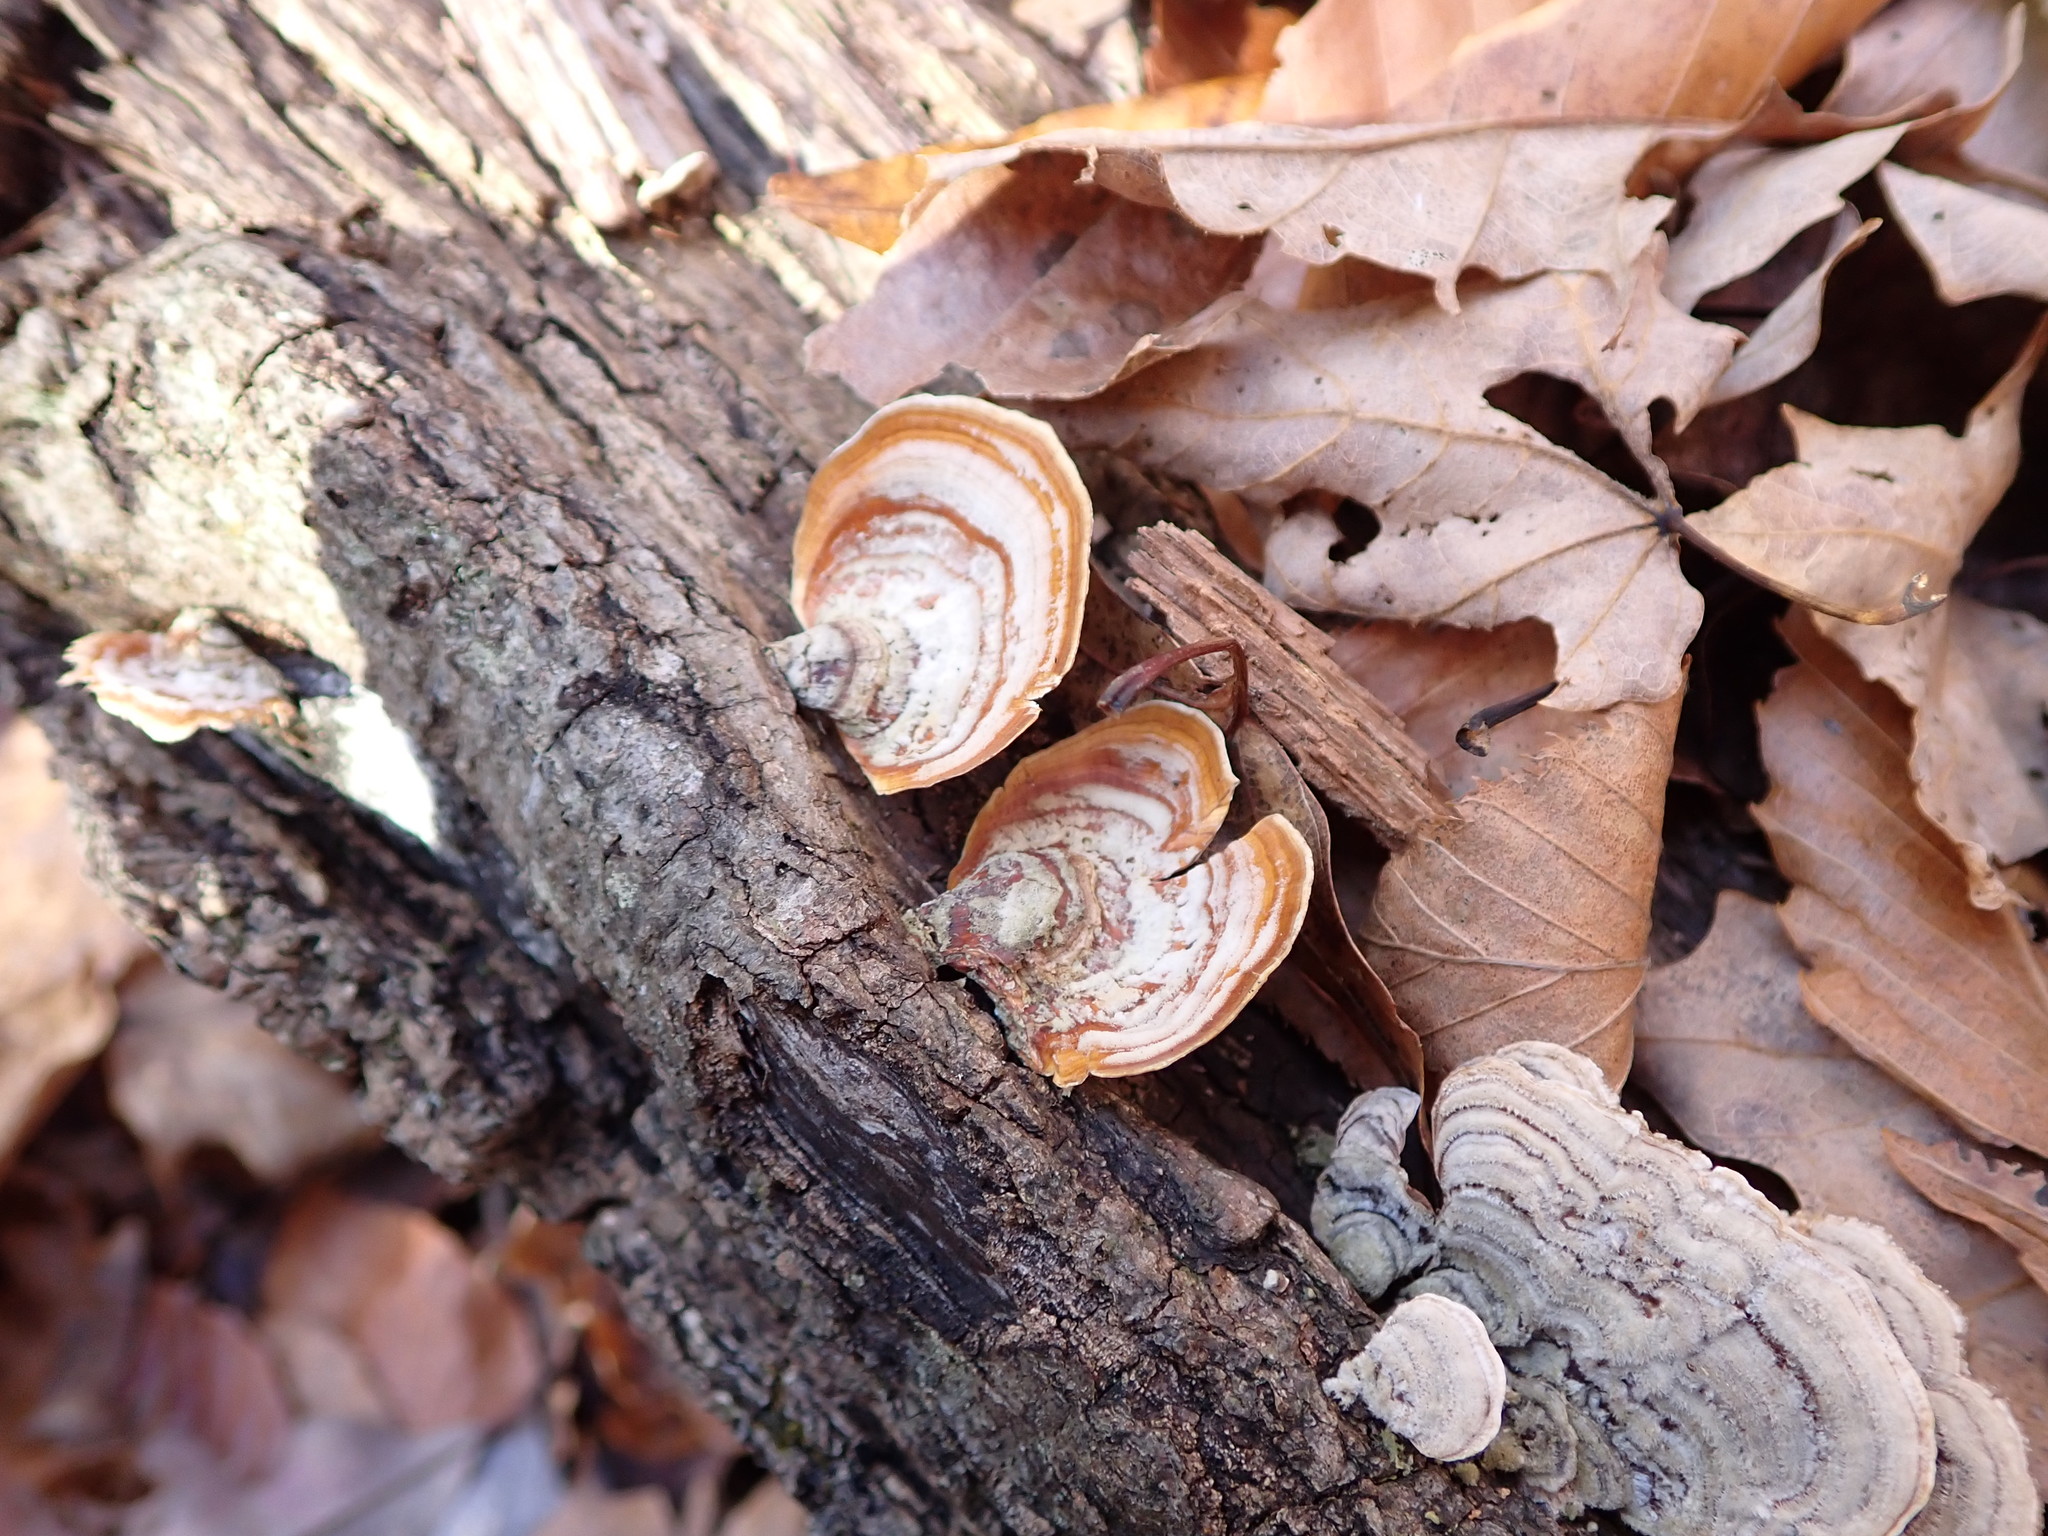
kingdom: Fungi
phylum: Basidiomycota
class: Agaricomycetes
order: Russulales
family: Stereaceae
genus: Stereum
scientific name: Stereum lobatum
